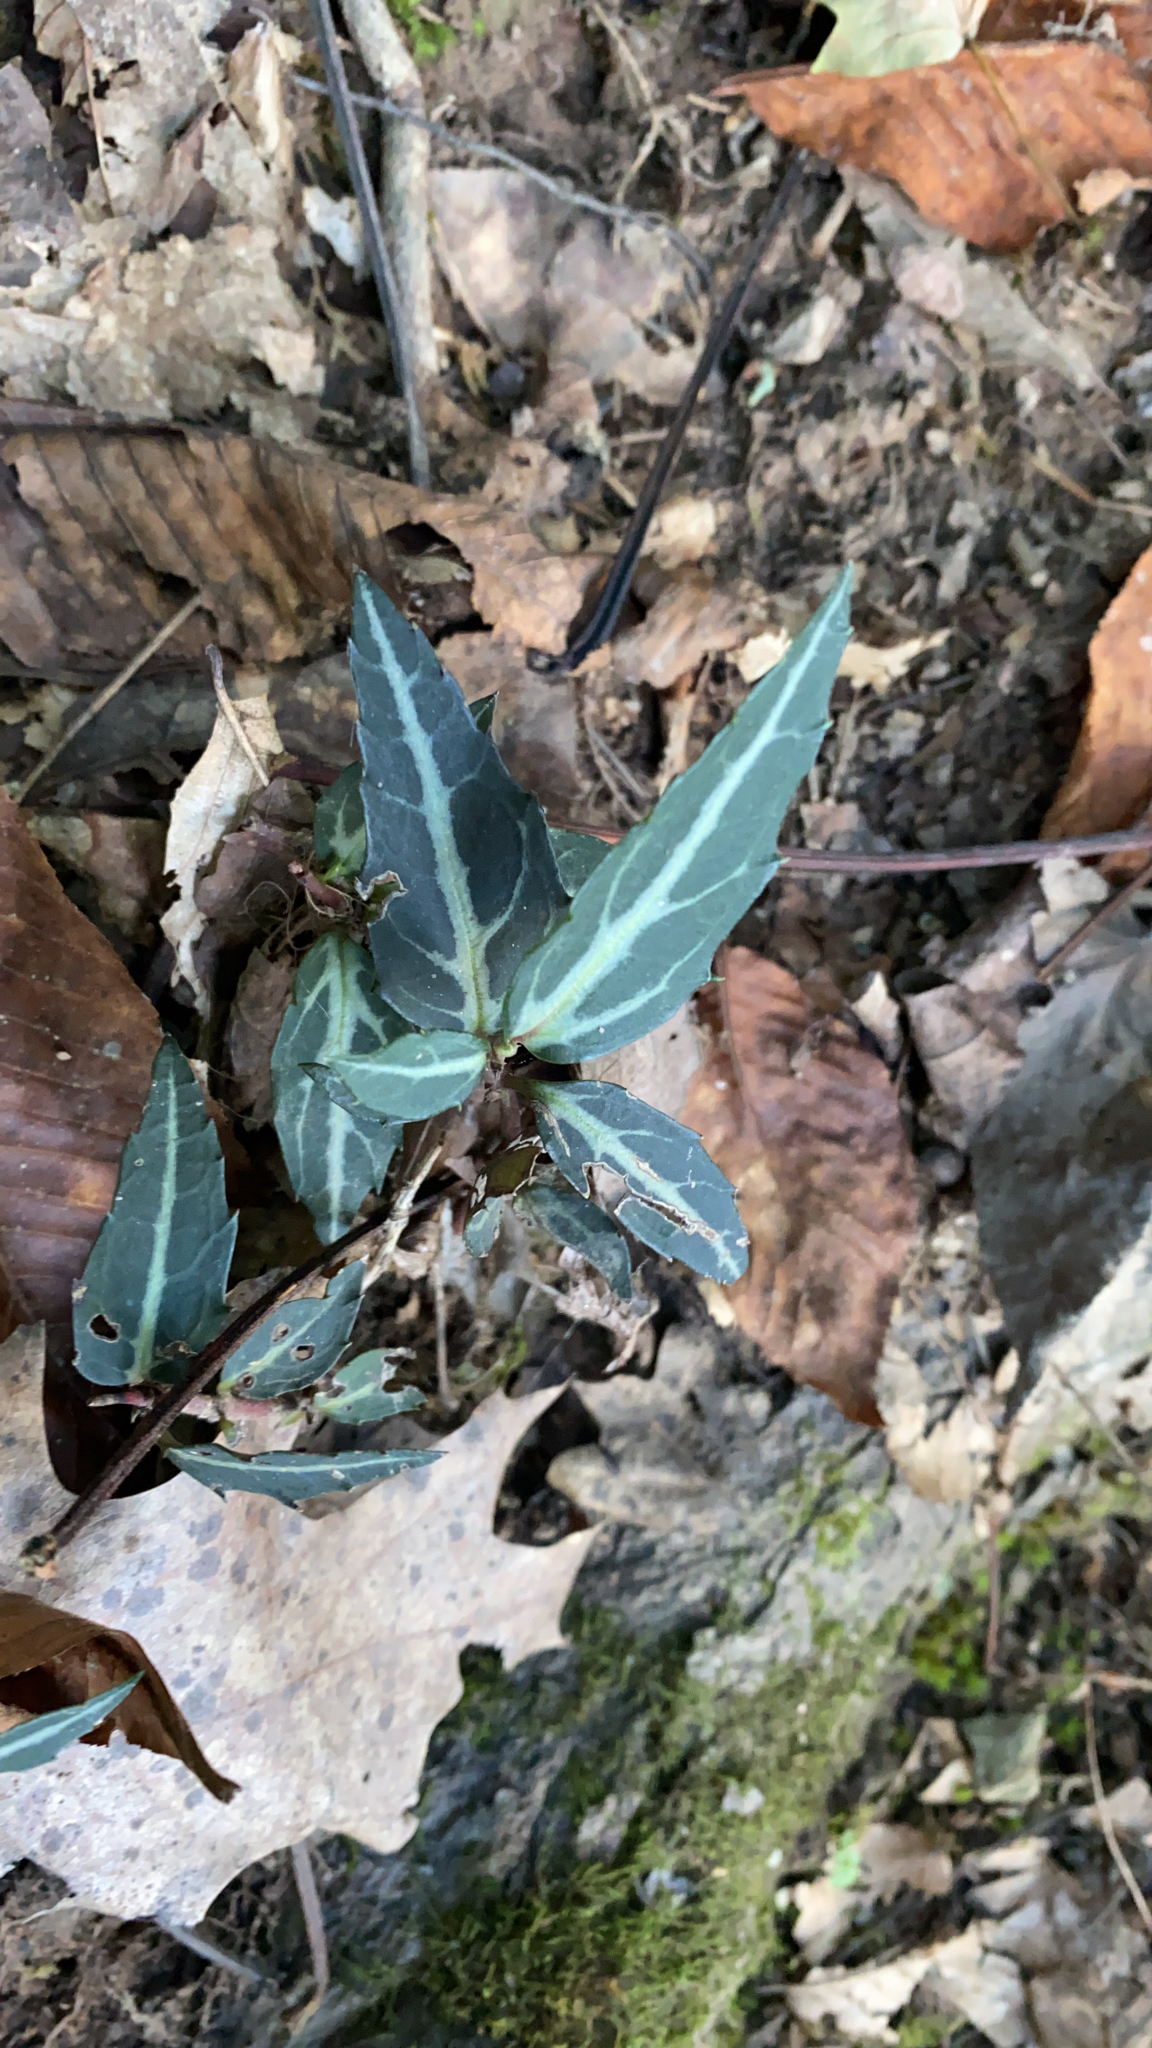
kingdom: Plantae
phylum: Tracheophyta
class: Magnoliopsida
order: Ericales
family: Ericaceae
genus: Chimaphila
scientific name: Chimaphila maculata
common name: Spotted pipsissewa
